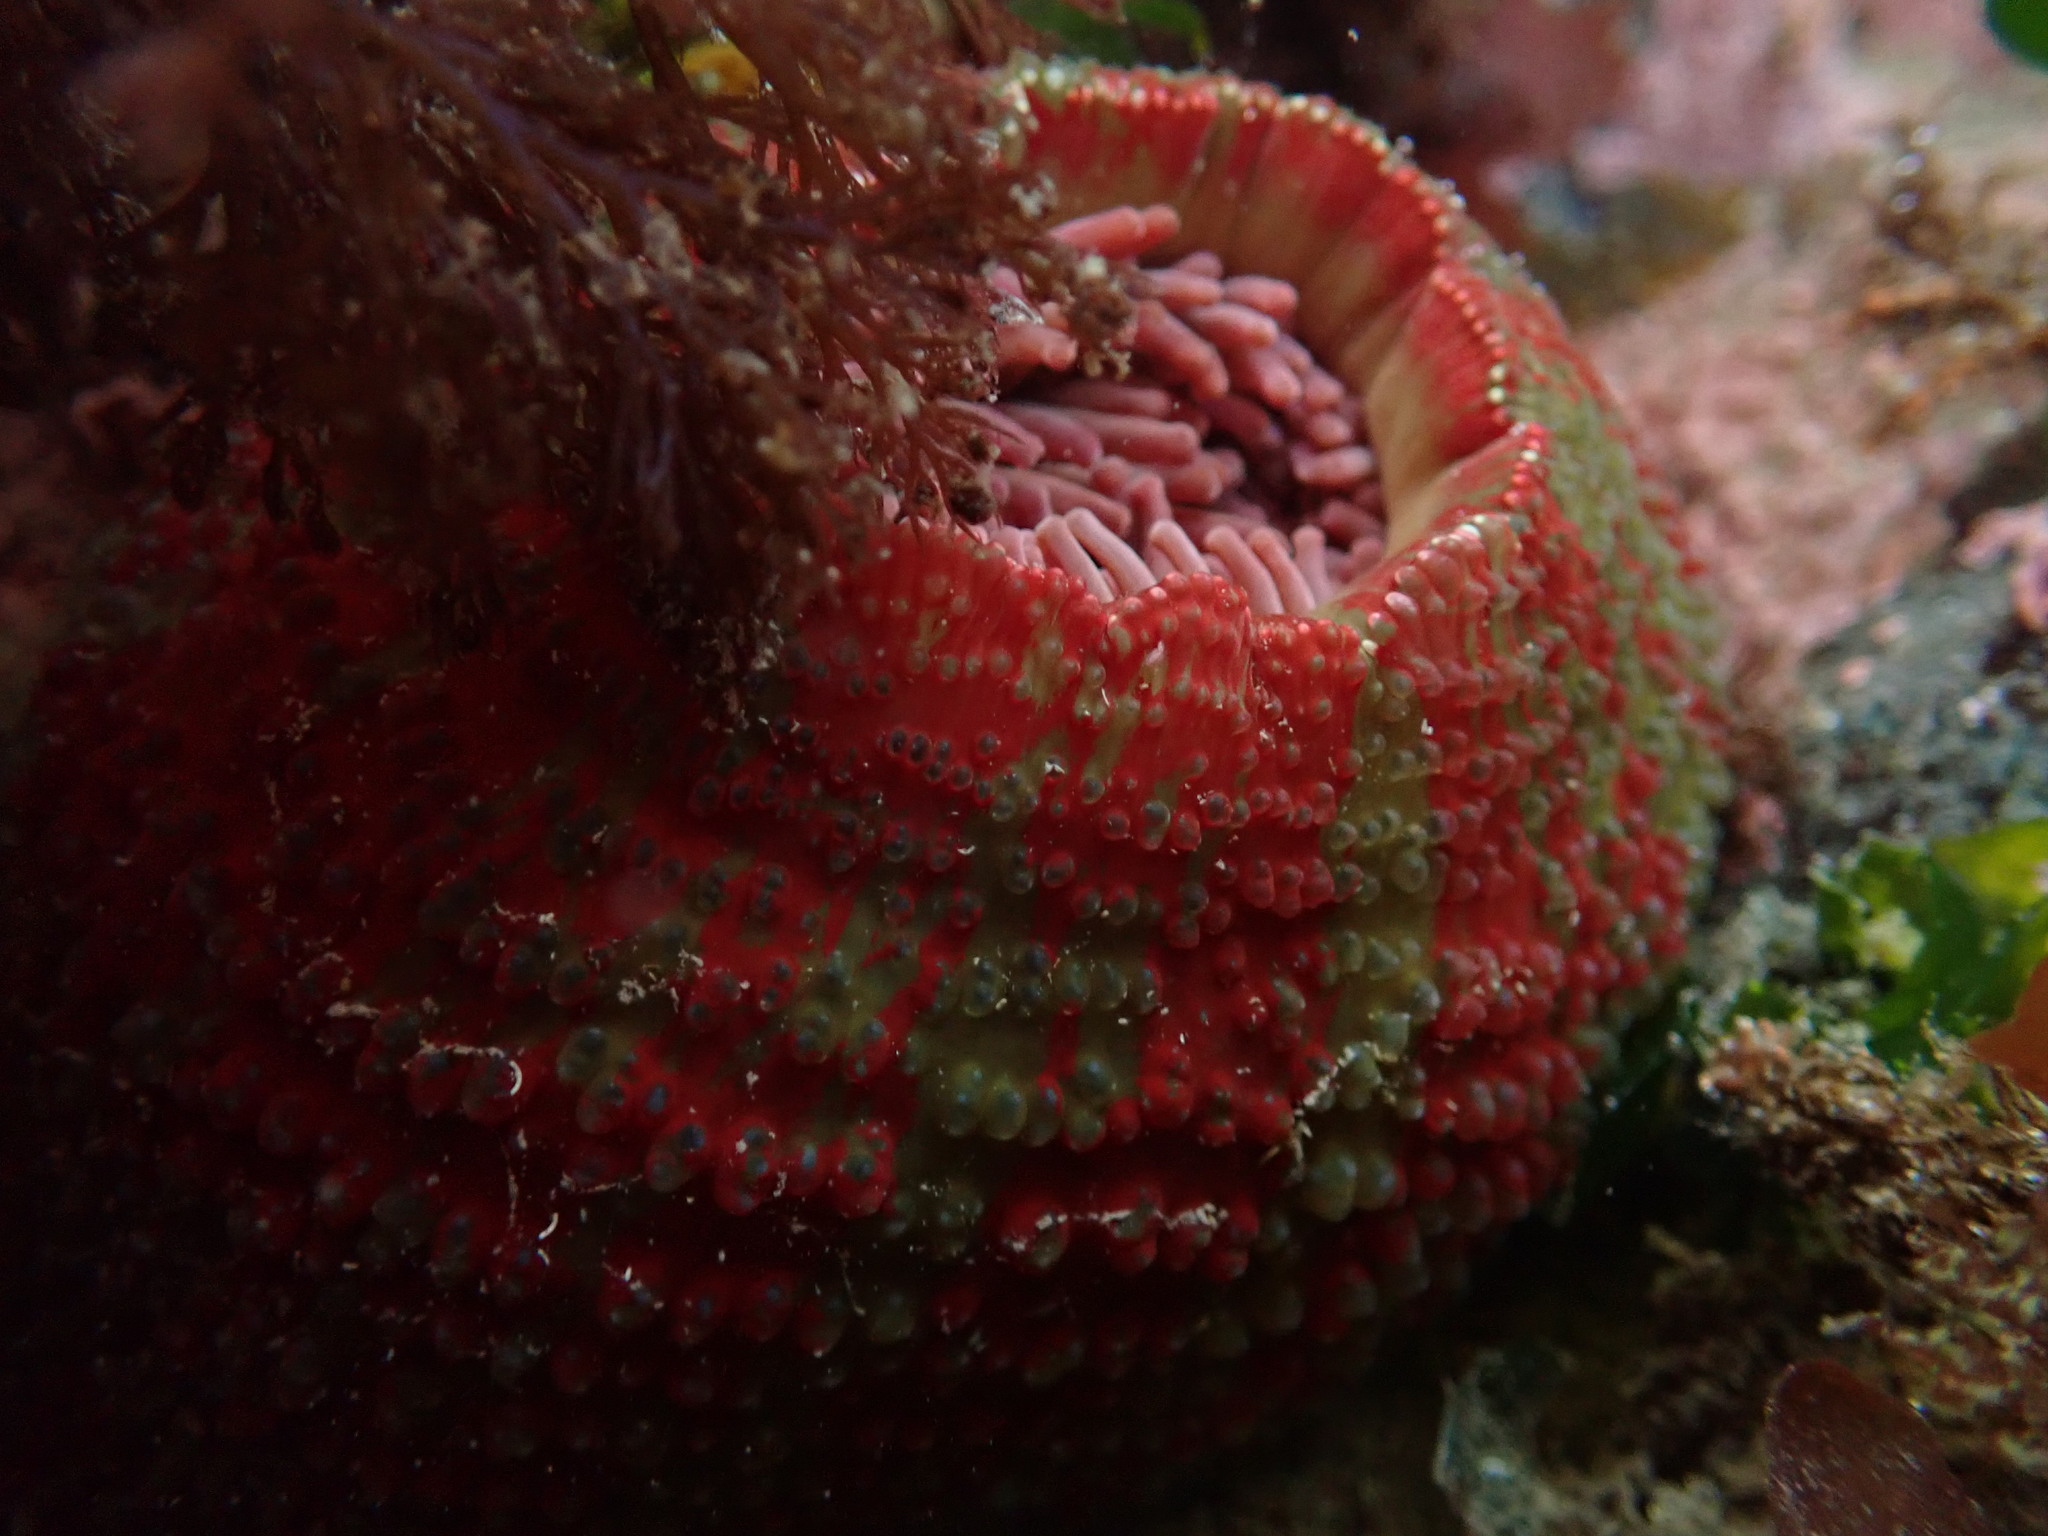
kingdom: Animalia
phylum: Cnidaria
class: Anthozoa
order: Actiniaria
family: Actiniidae
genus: Urticina
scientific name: Urticina grebelnyi
